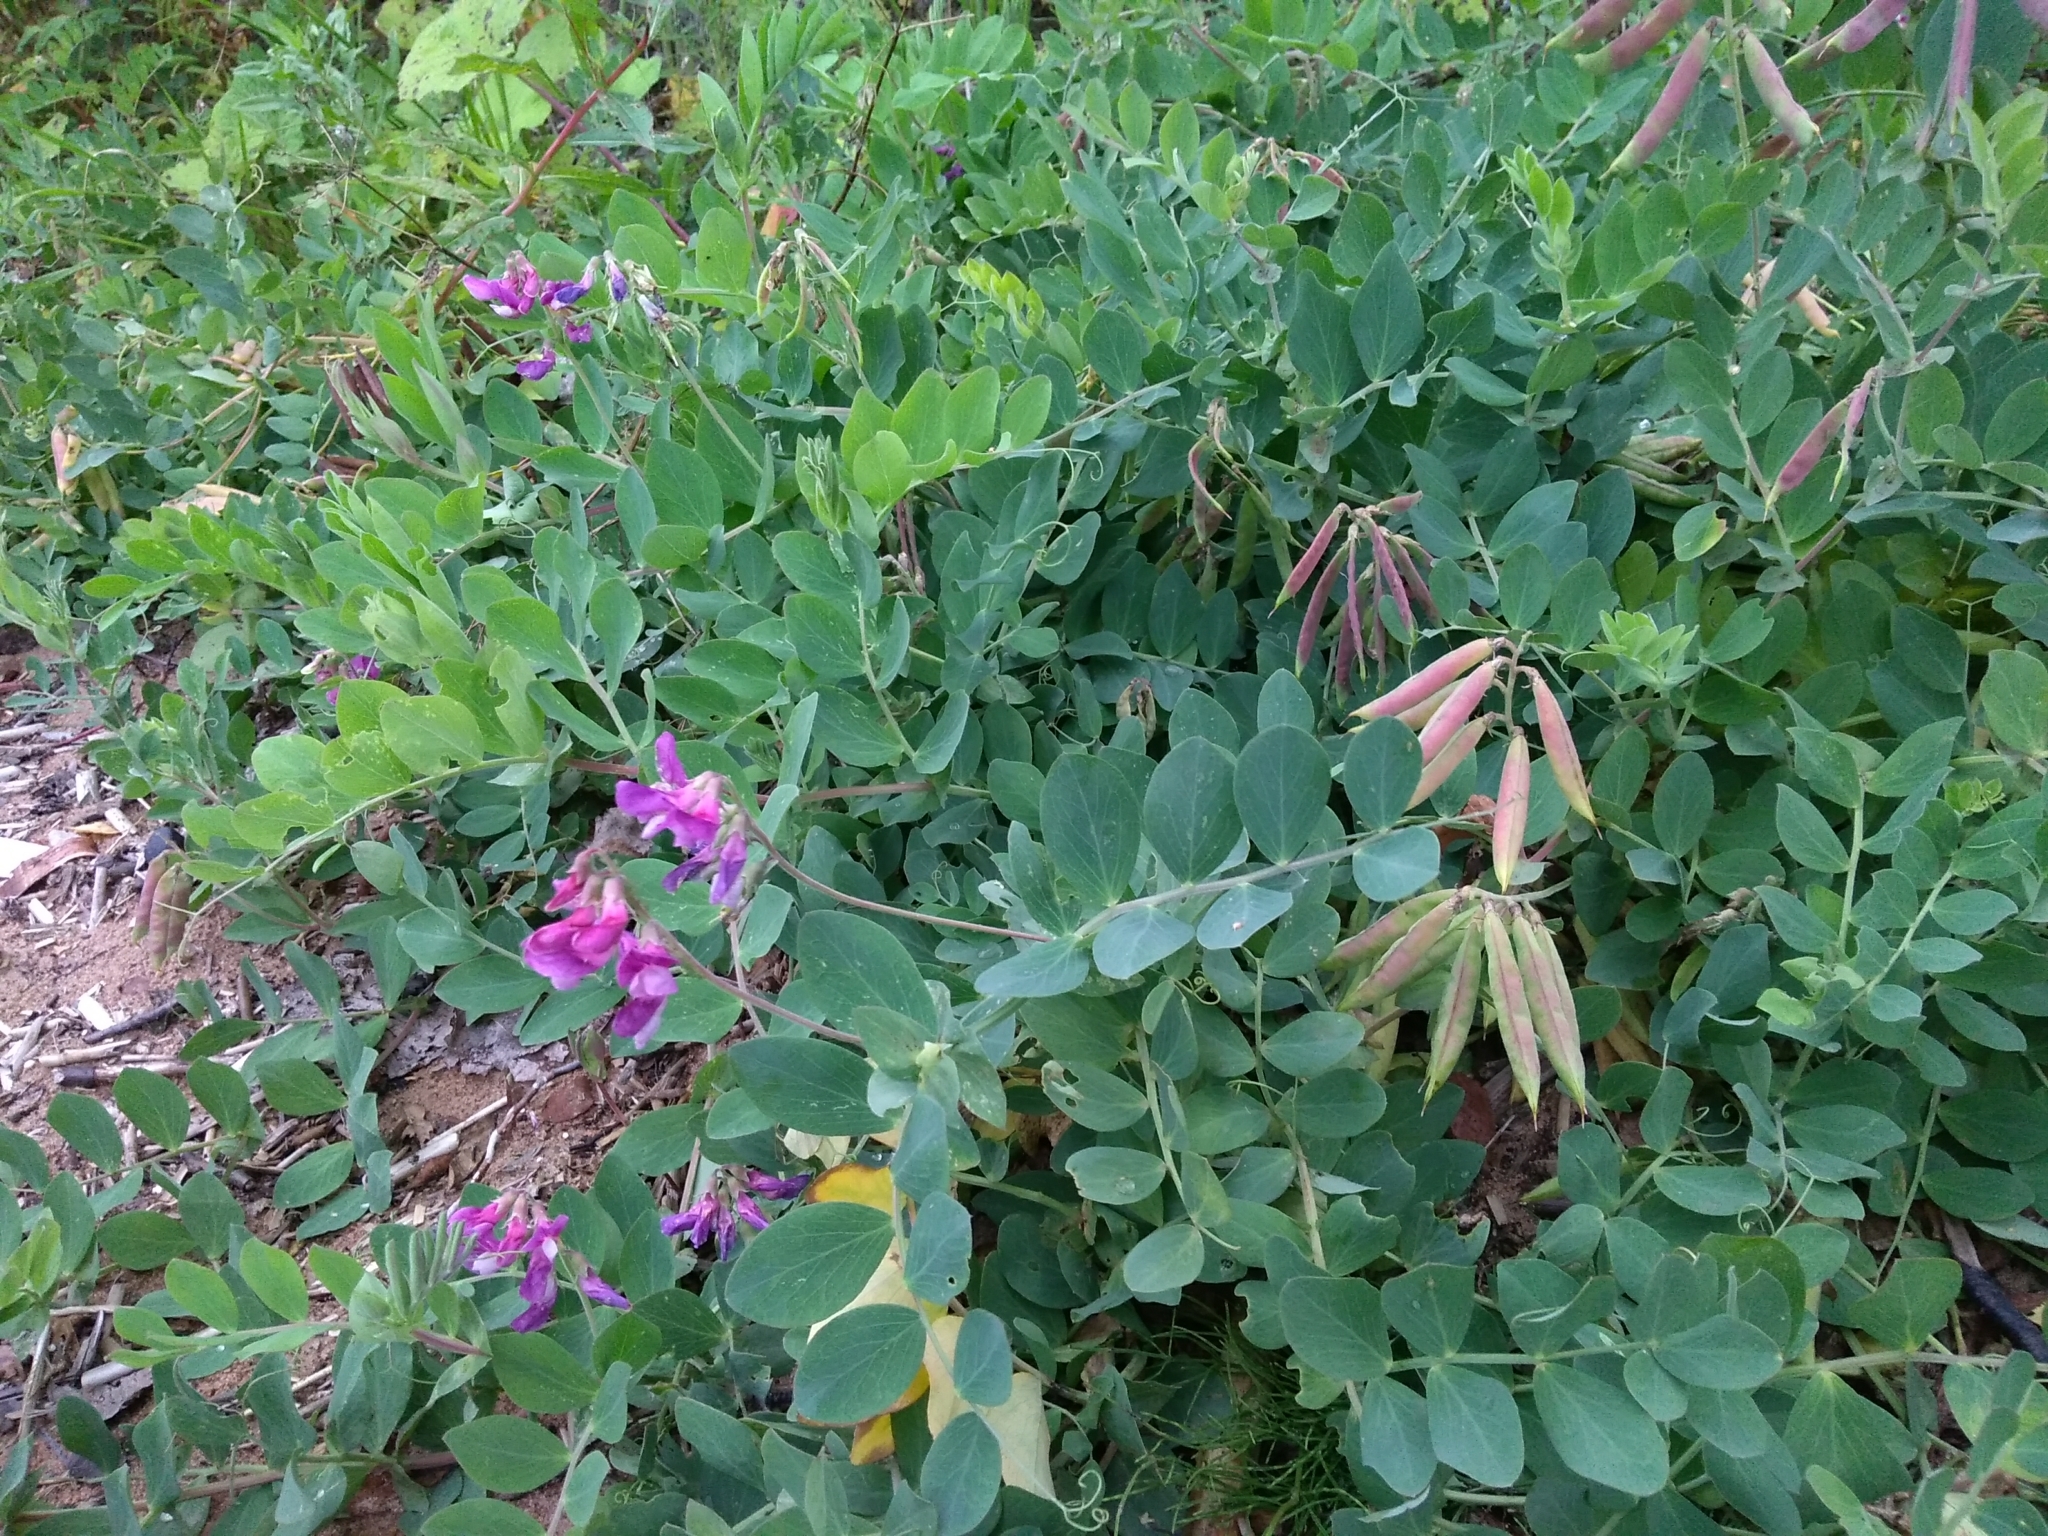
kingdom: Plantae
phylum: Tracheophyta
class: Magnoliopsida
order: Fabales
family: Fabaceae
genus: Lathyrus
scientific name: Lathyrus japonicus
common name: Sea pea
